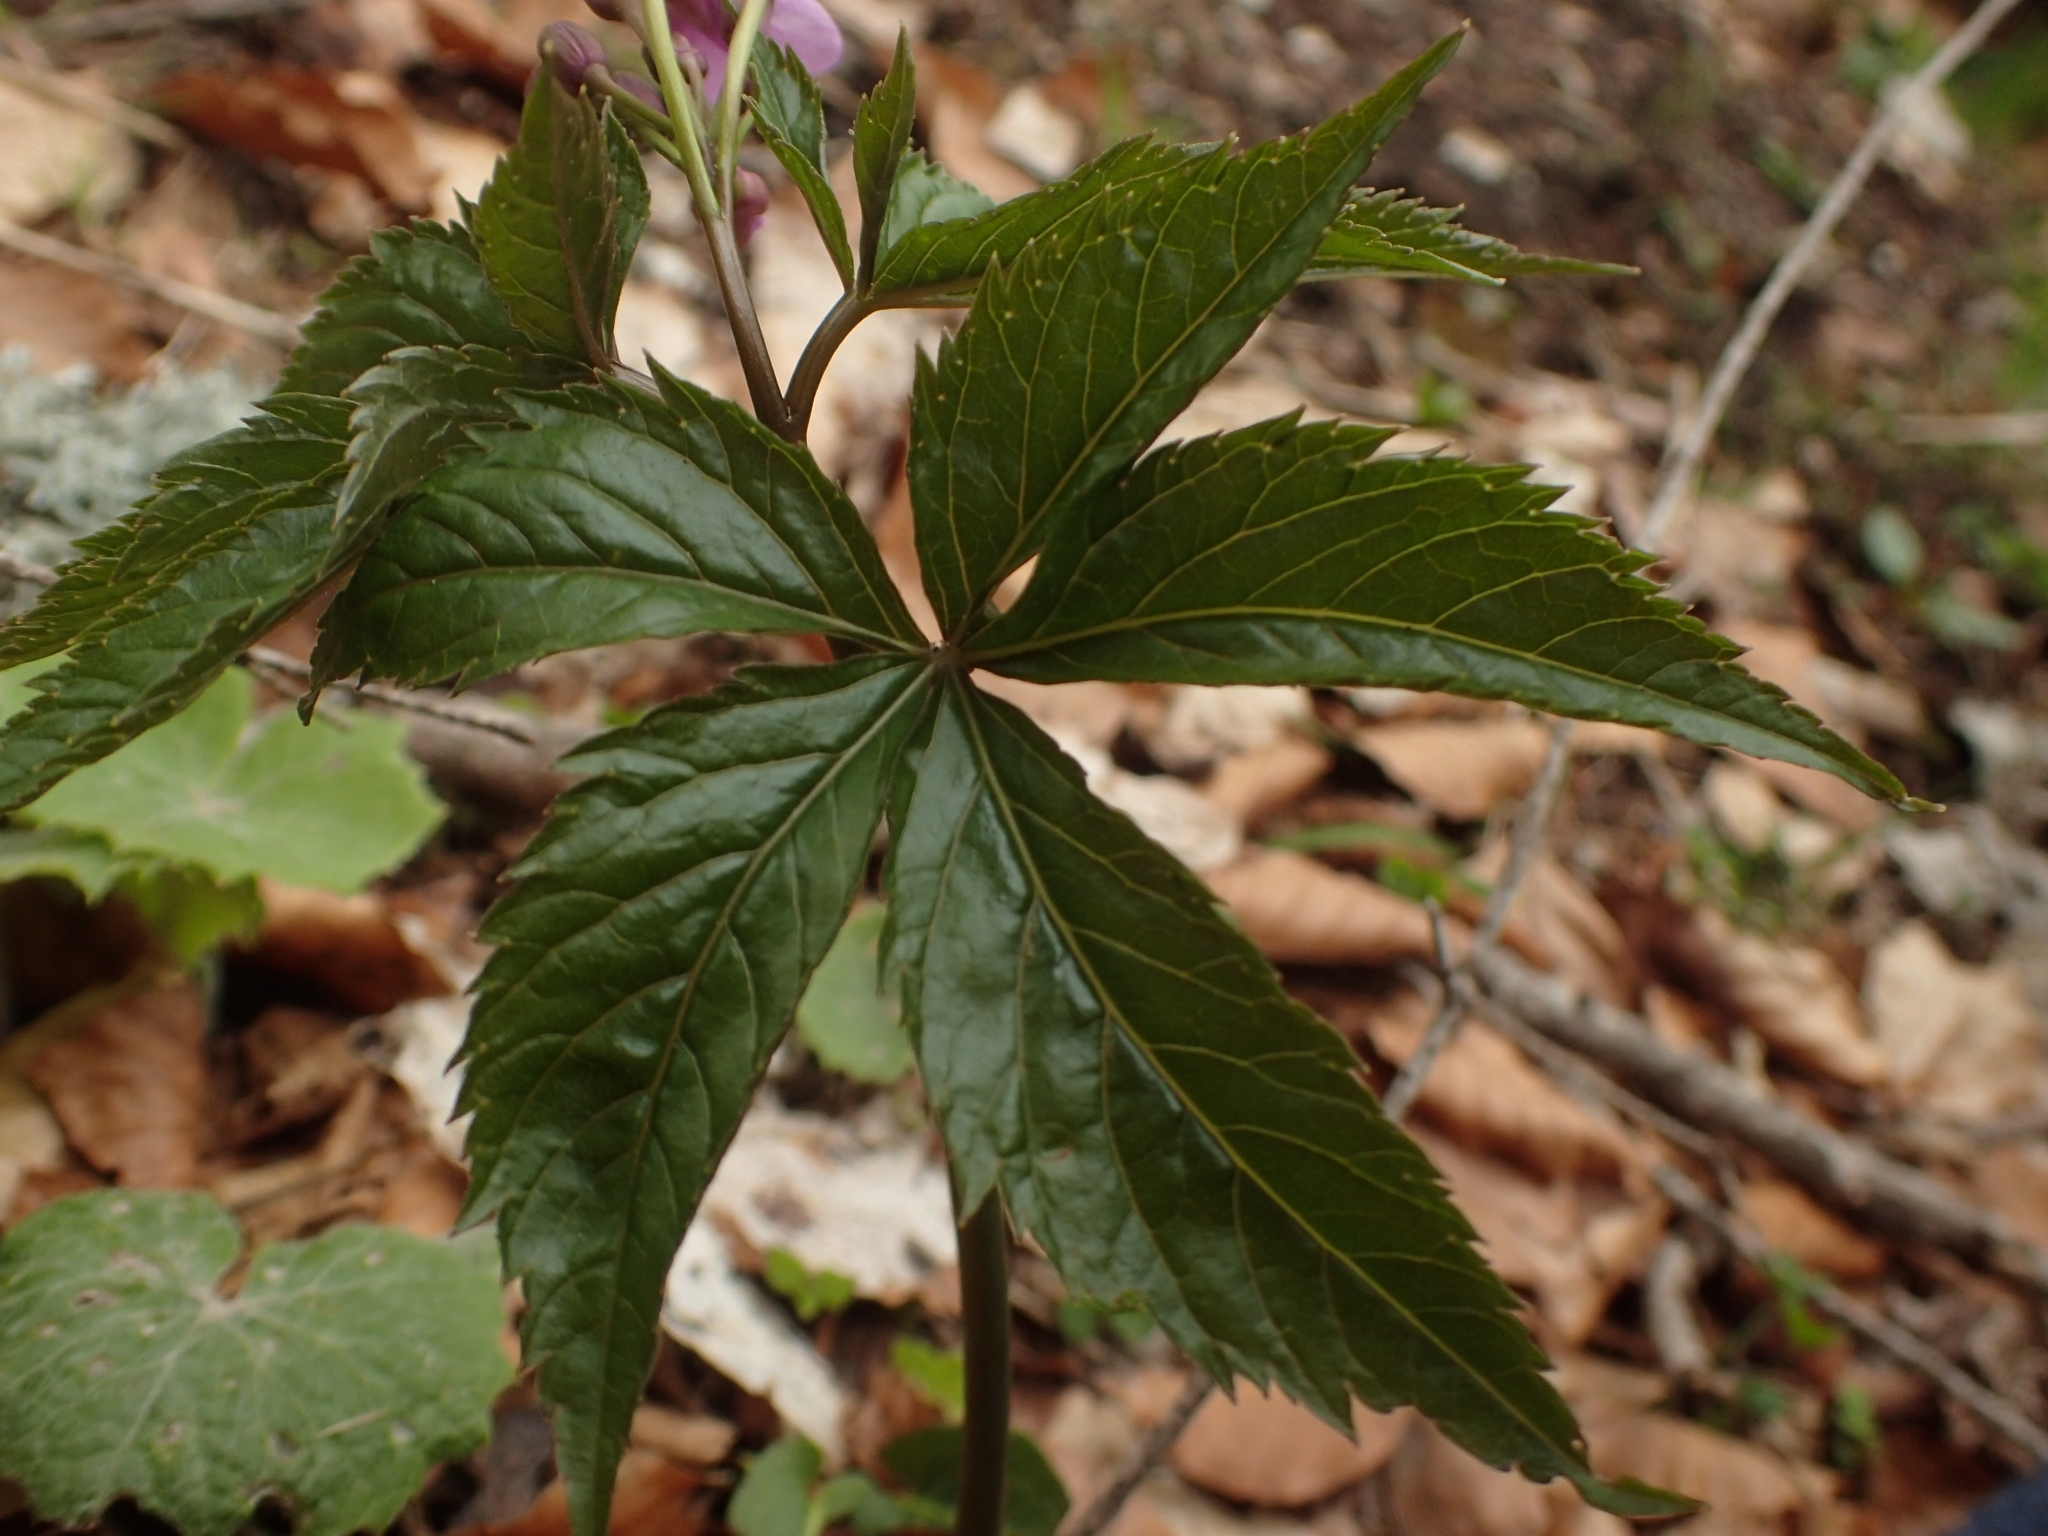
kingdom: Plantae
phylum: Tracheophyta
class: Magnoliopsida
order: Brassicales
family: Brassicaceae
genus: Cardamine
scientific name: Cardamine pentaphyllos
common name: Five-leaflet bitter-cress
